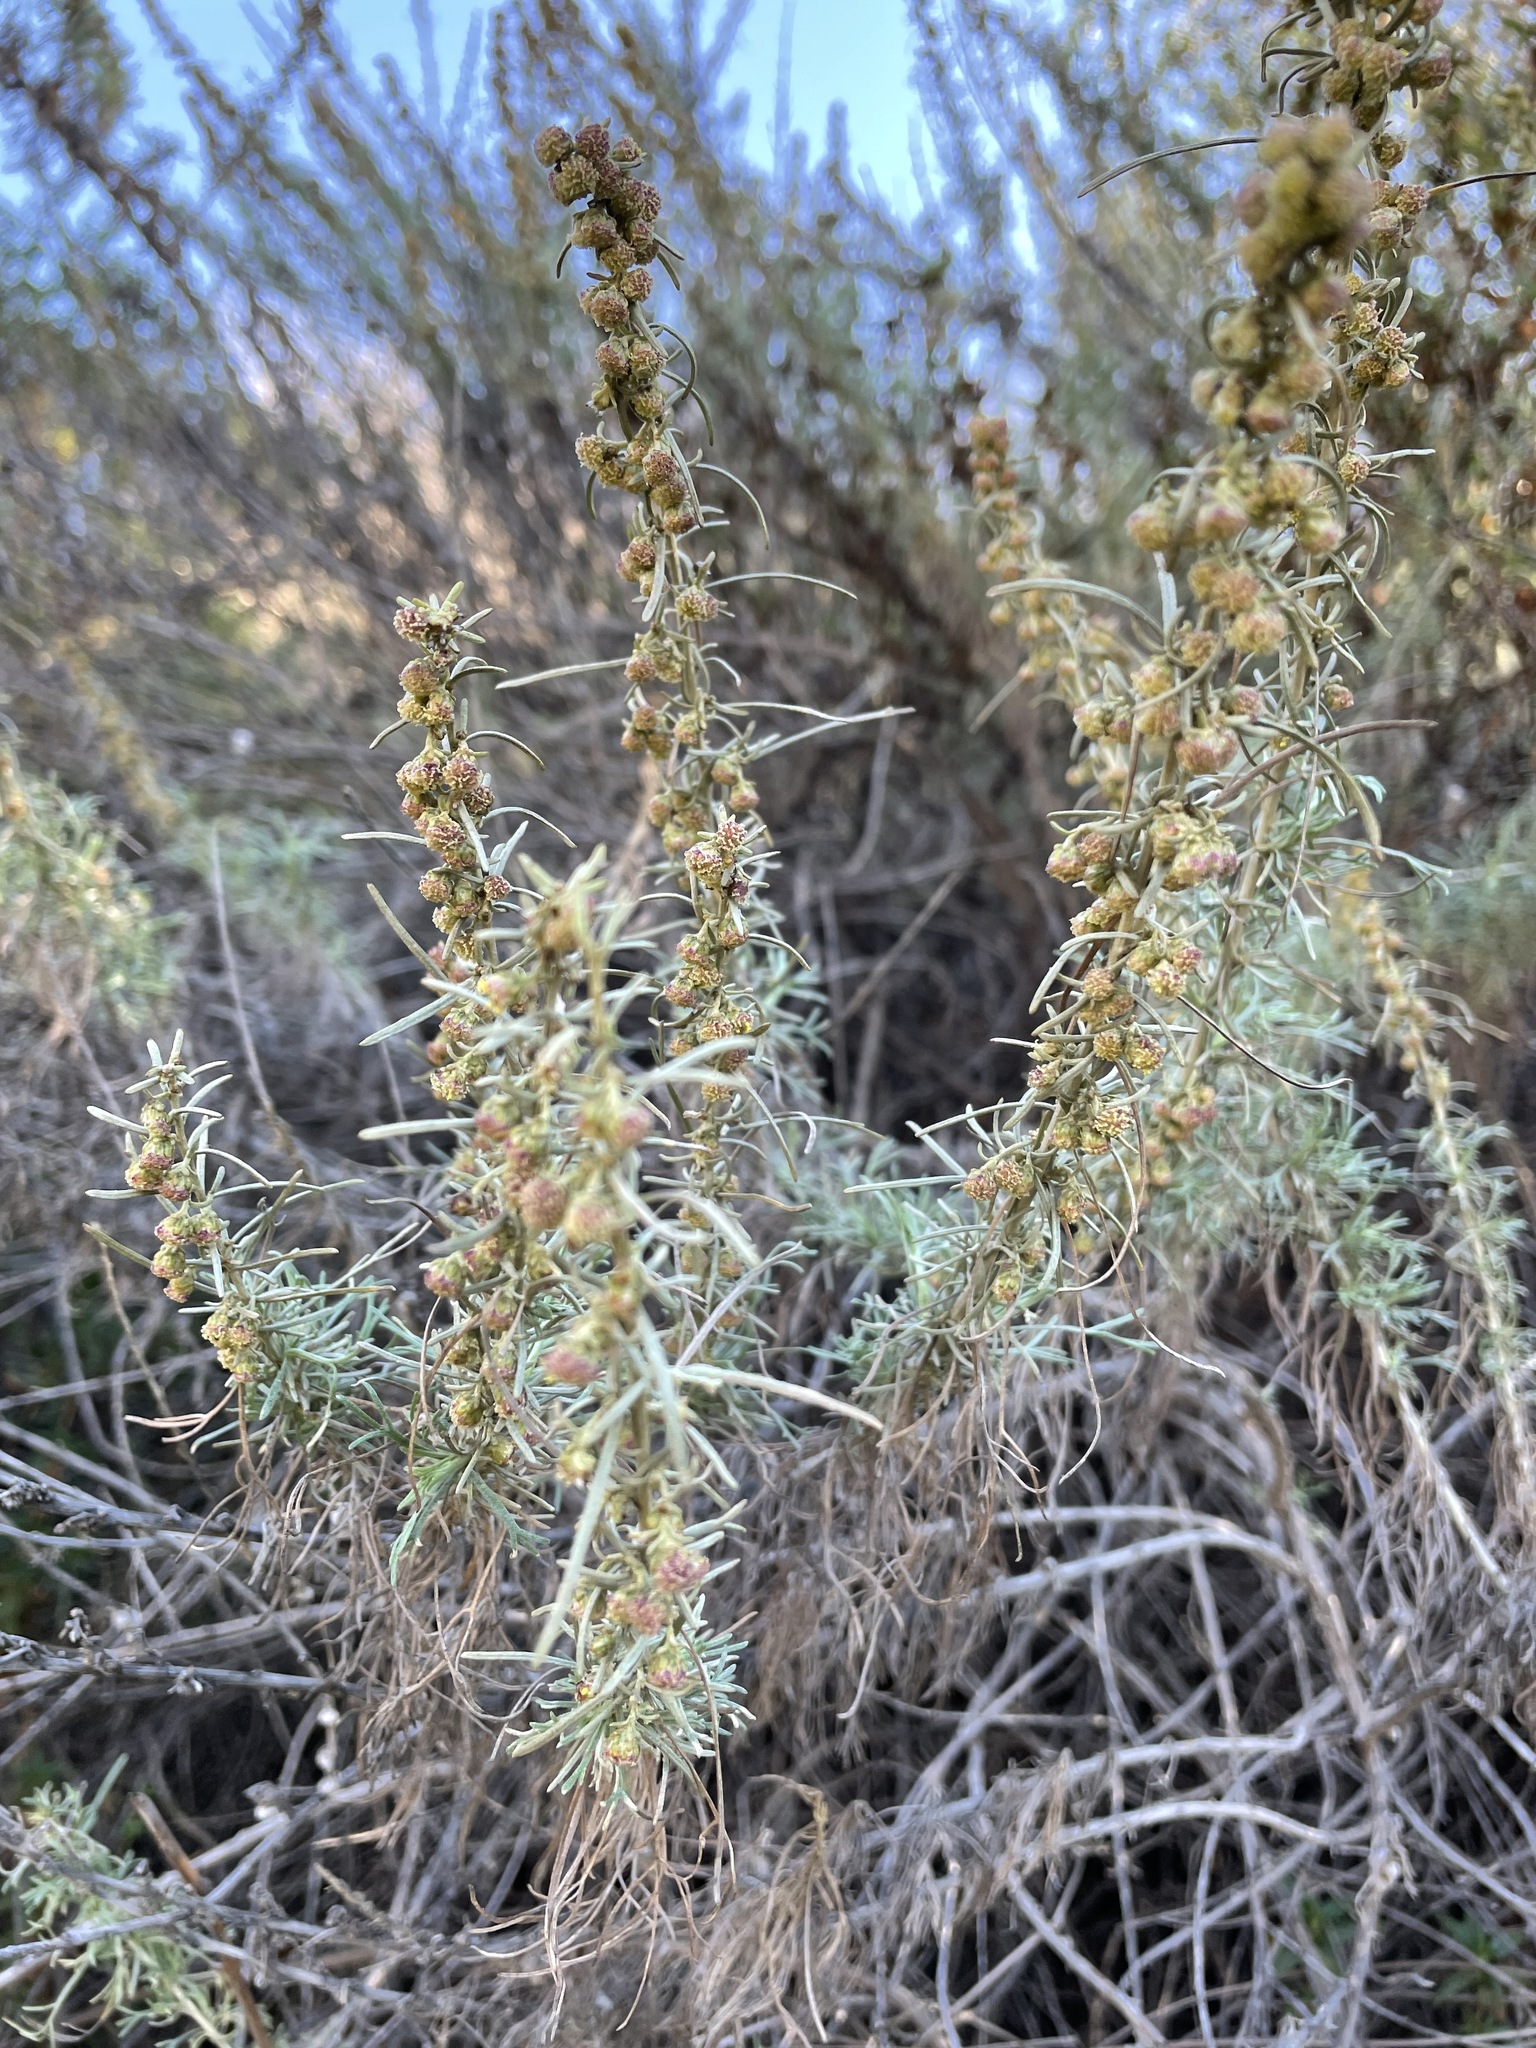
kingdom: Plantae
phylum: Tracheophyta
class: Magnoliopsida
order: Asterales
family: Asteraceae
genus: Artemisia
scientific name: Artemisia californica
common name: California sagebrush
